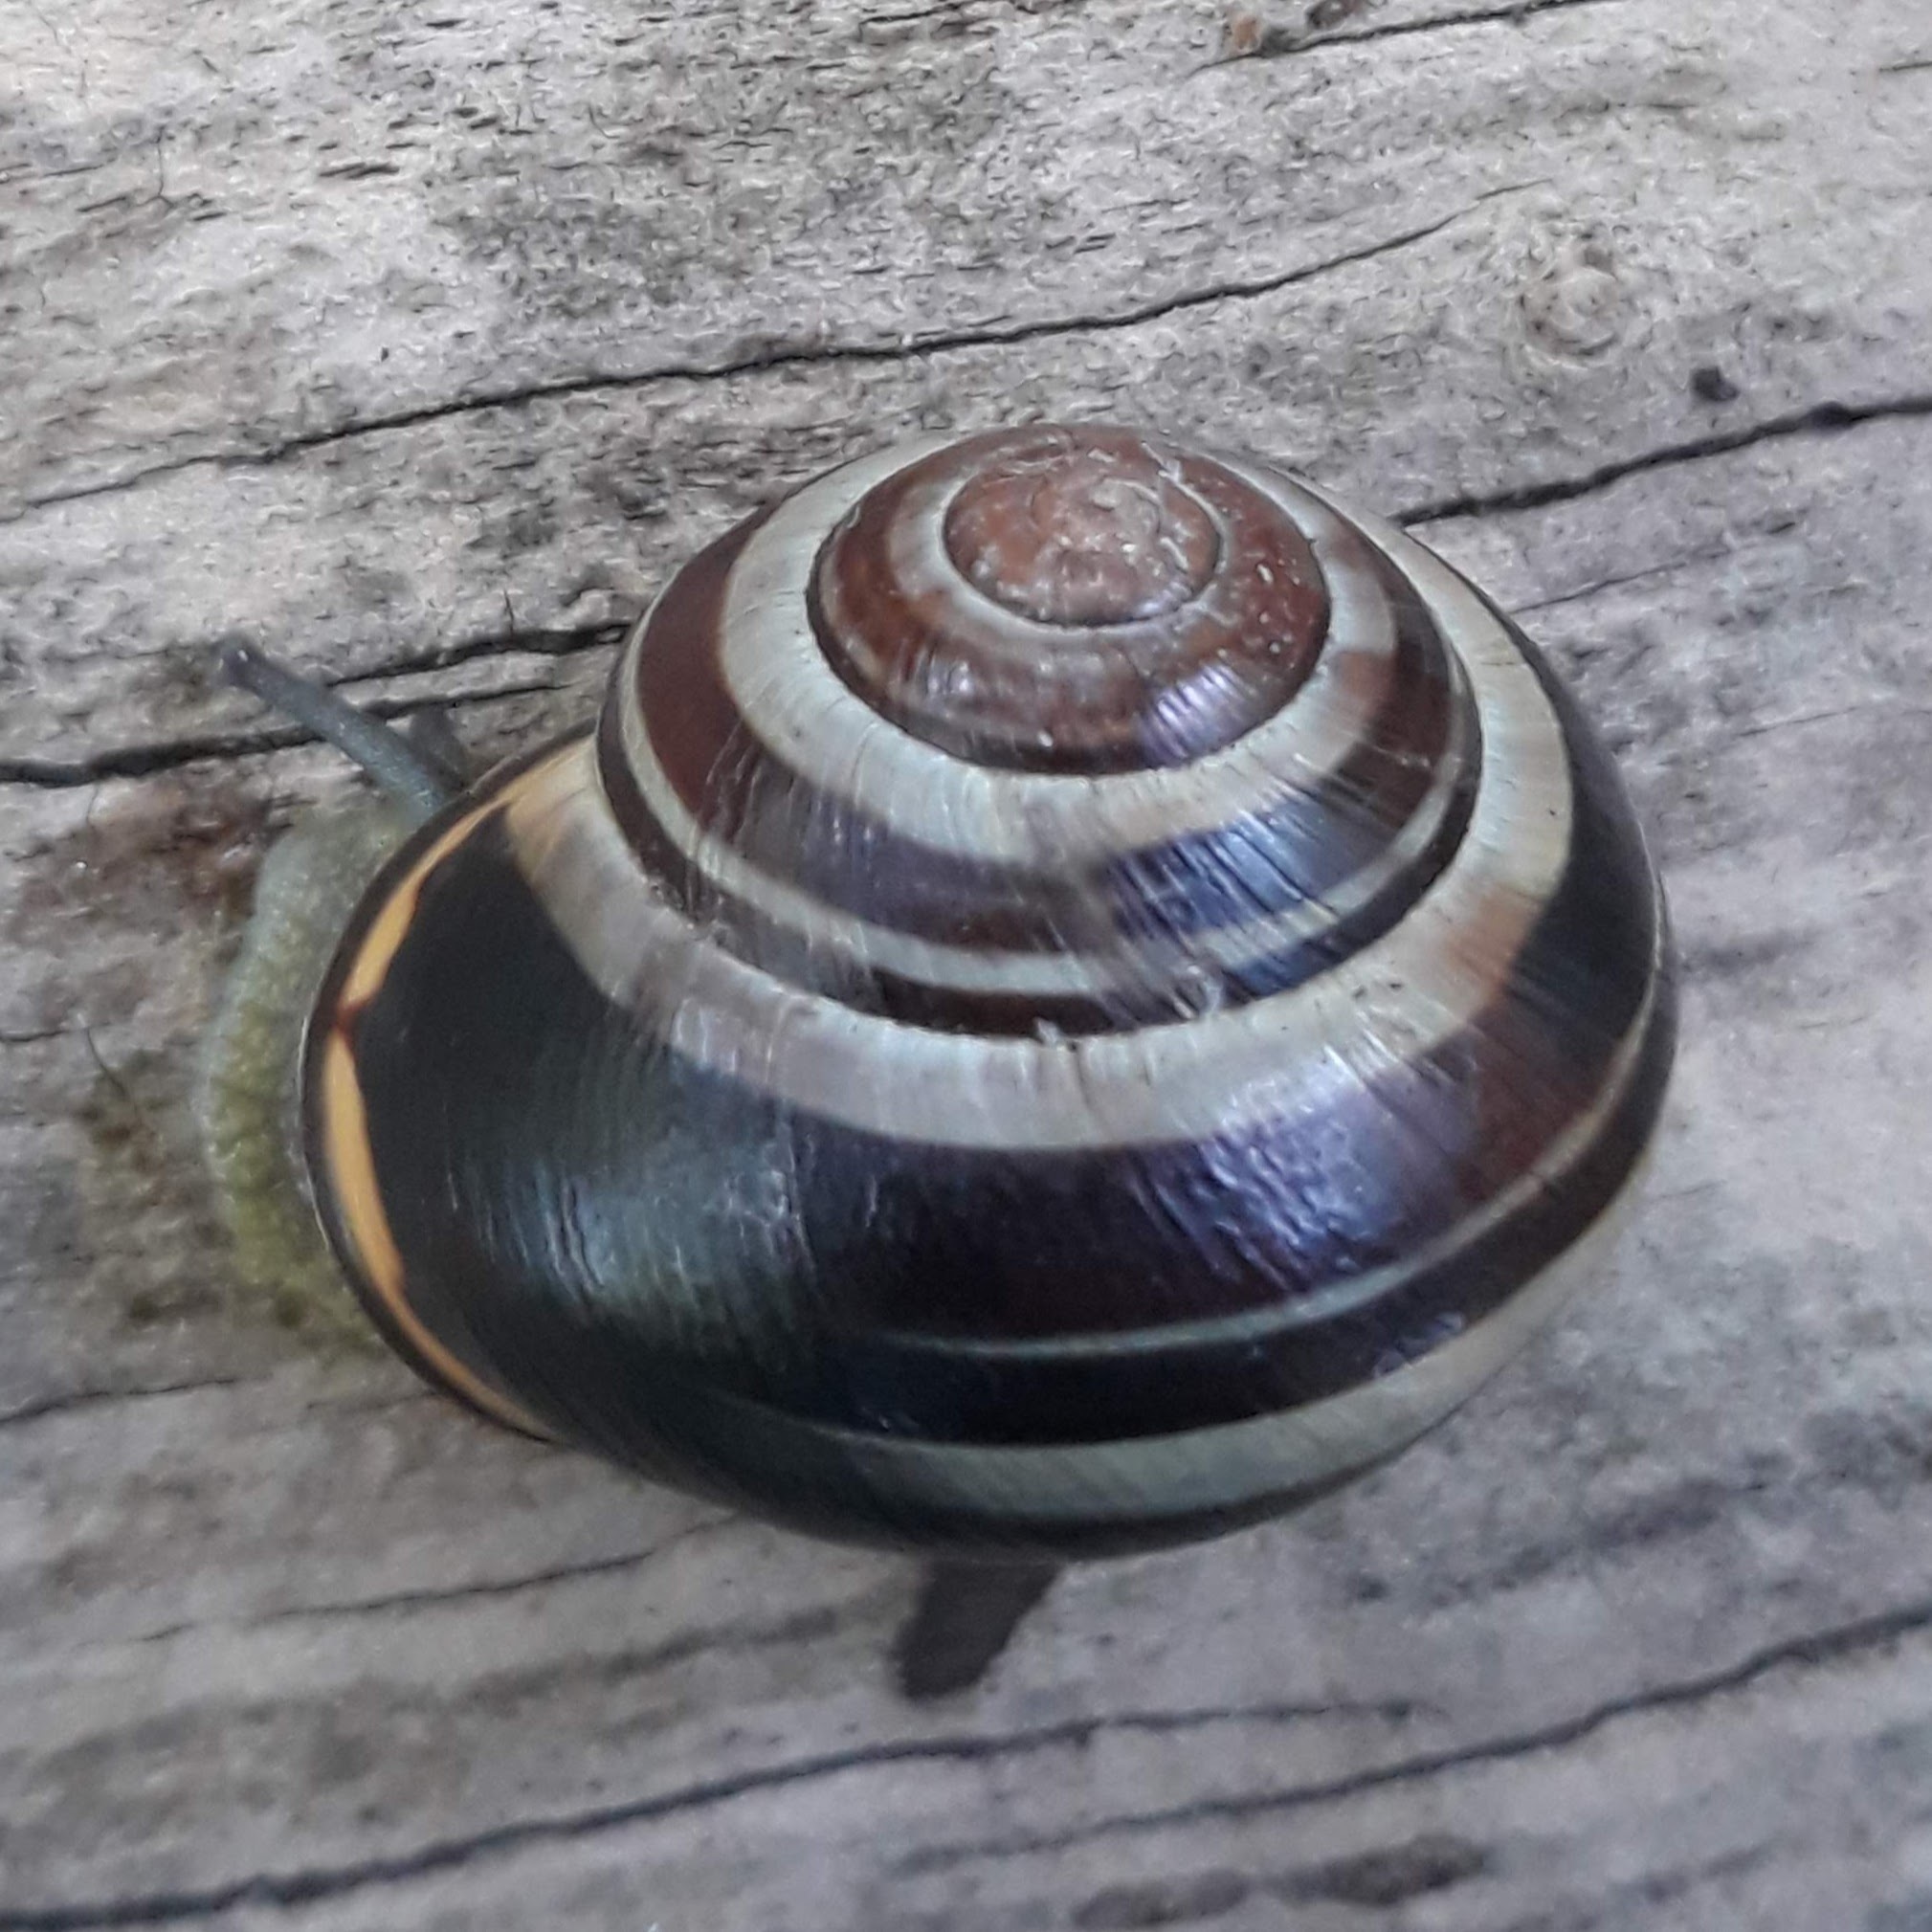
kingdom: Animalia
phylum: Mollusca
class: Gastropoda
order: Stylommatophora
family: Helicidae
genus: Cepaea
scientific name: Cepaea nemoralis
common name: Grovesnail
